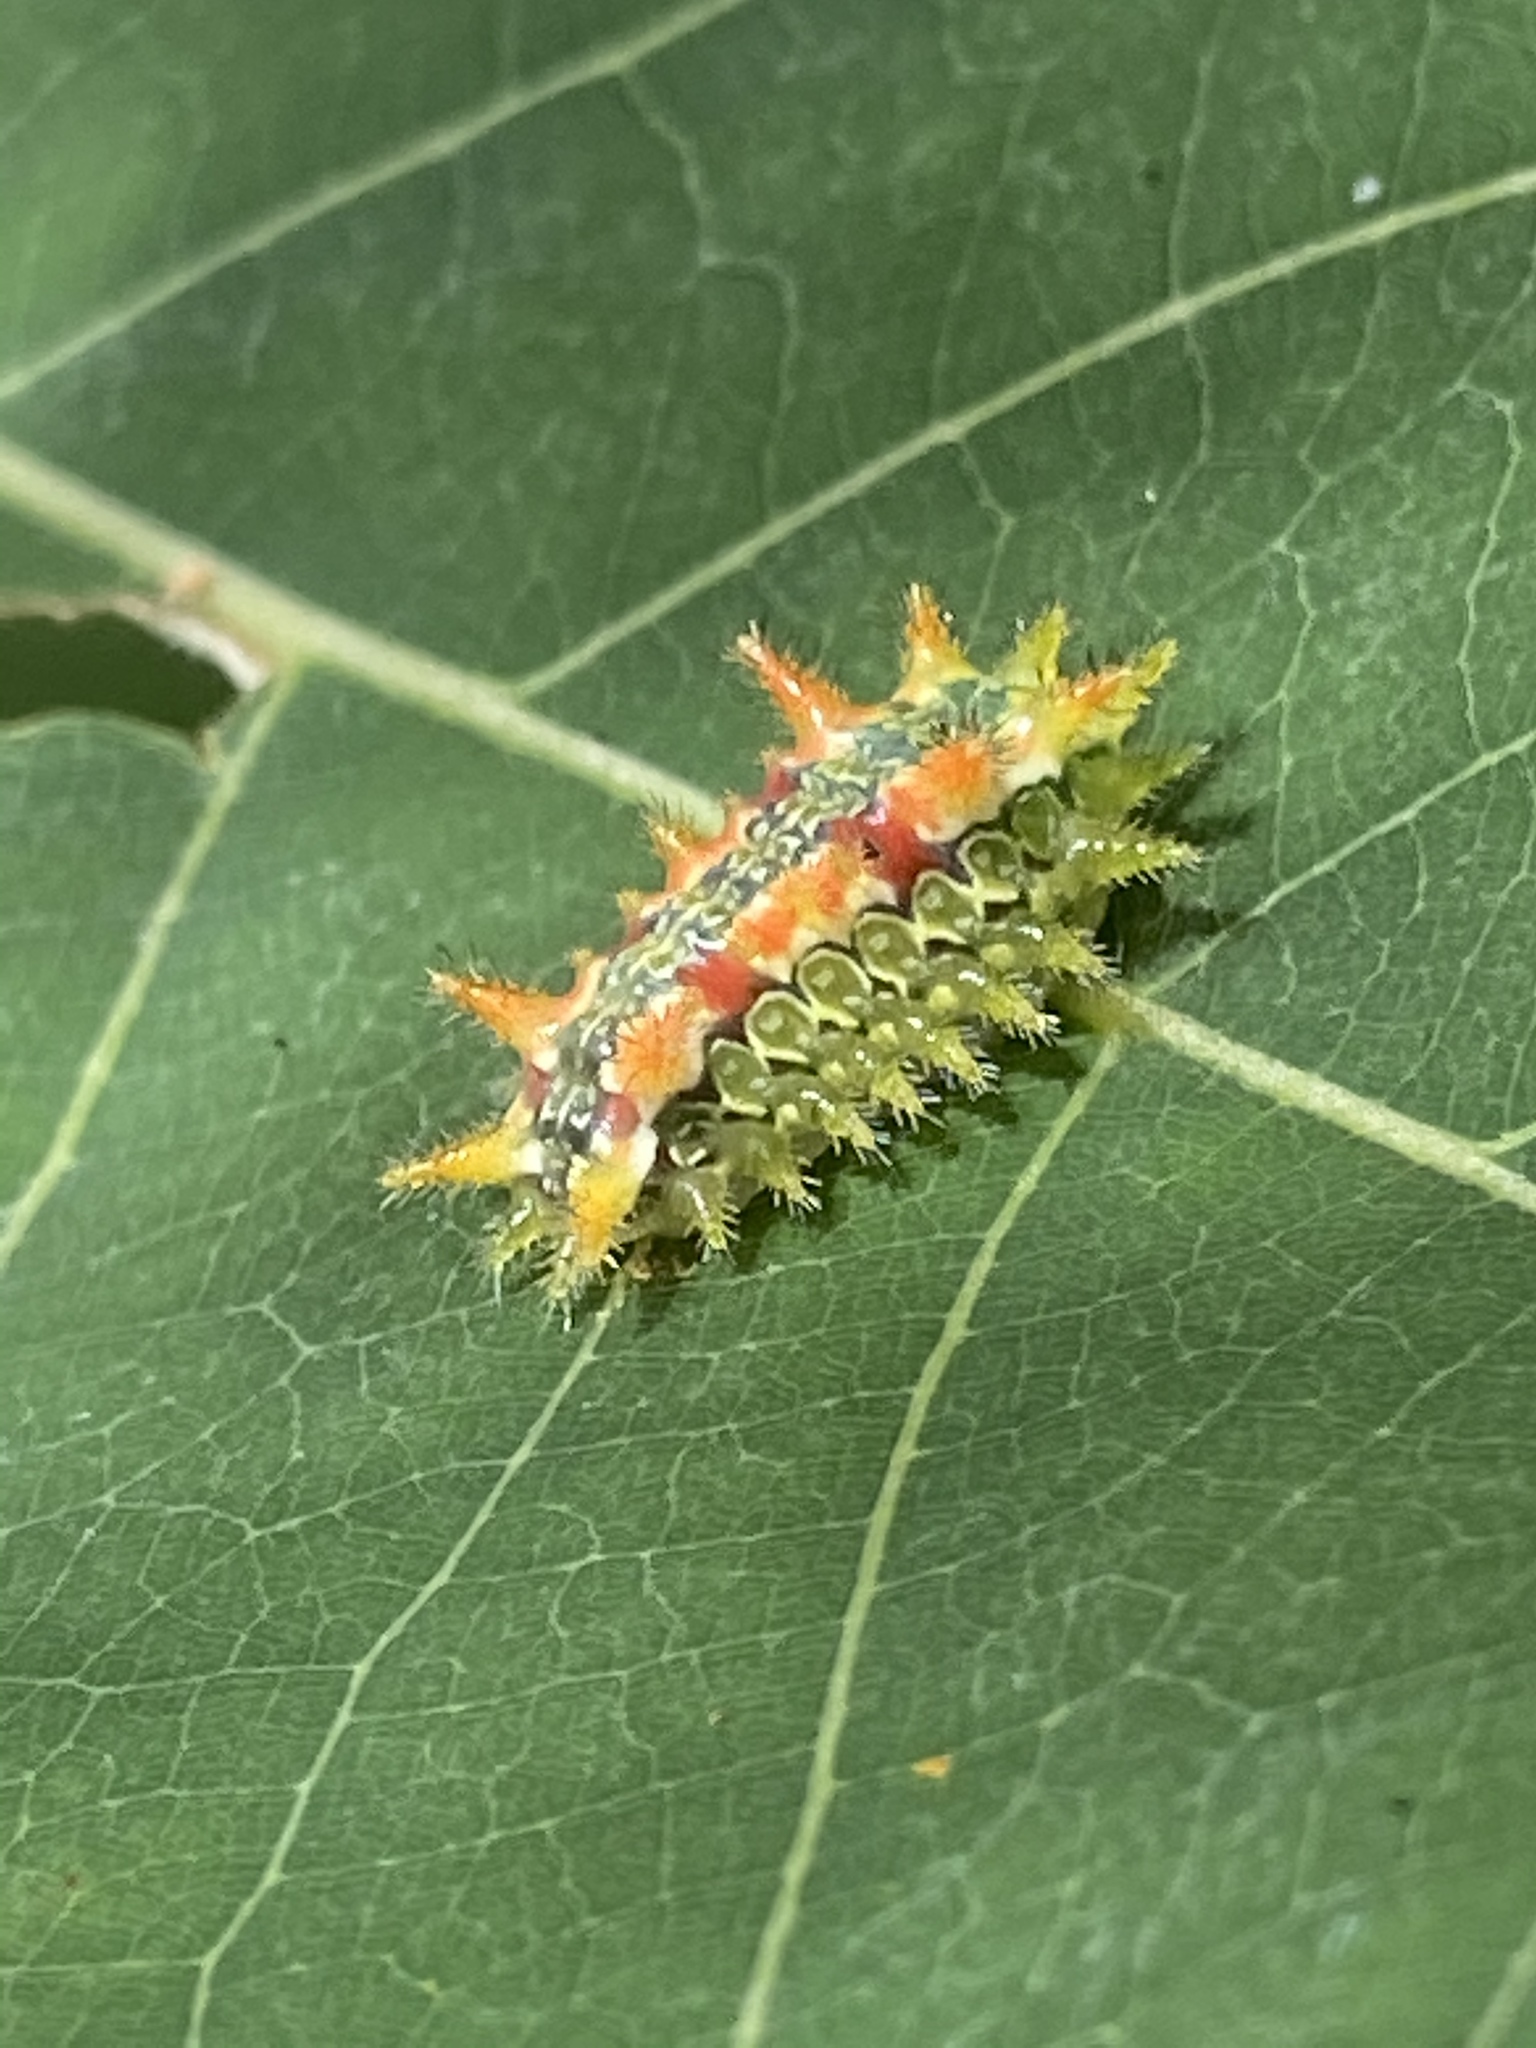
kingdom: Animalia
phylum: Arthropoda
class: Insecta
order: Lepidoptera
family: Limacodidae
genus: Euclea
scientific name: Euclea delphinii
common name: Spiny oak-slug moth
